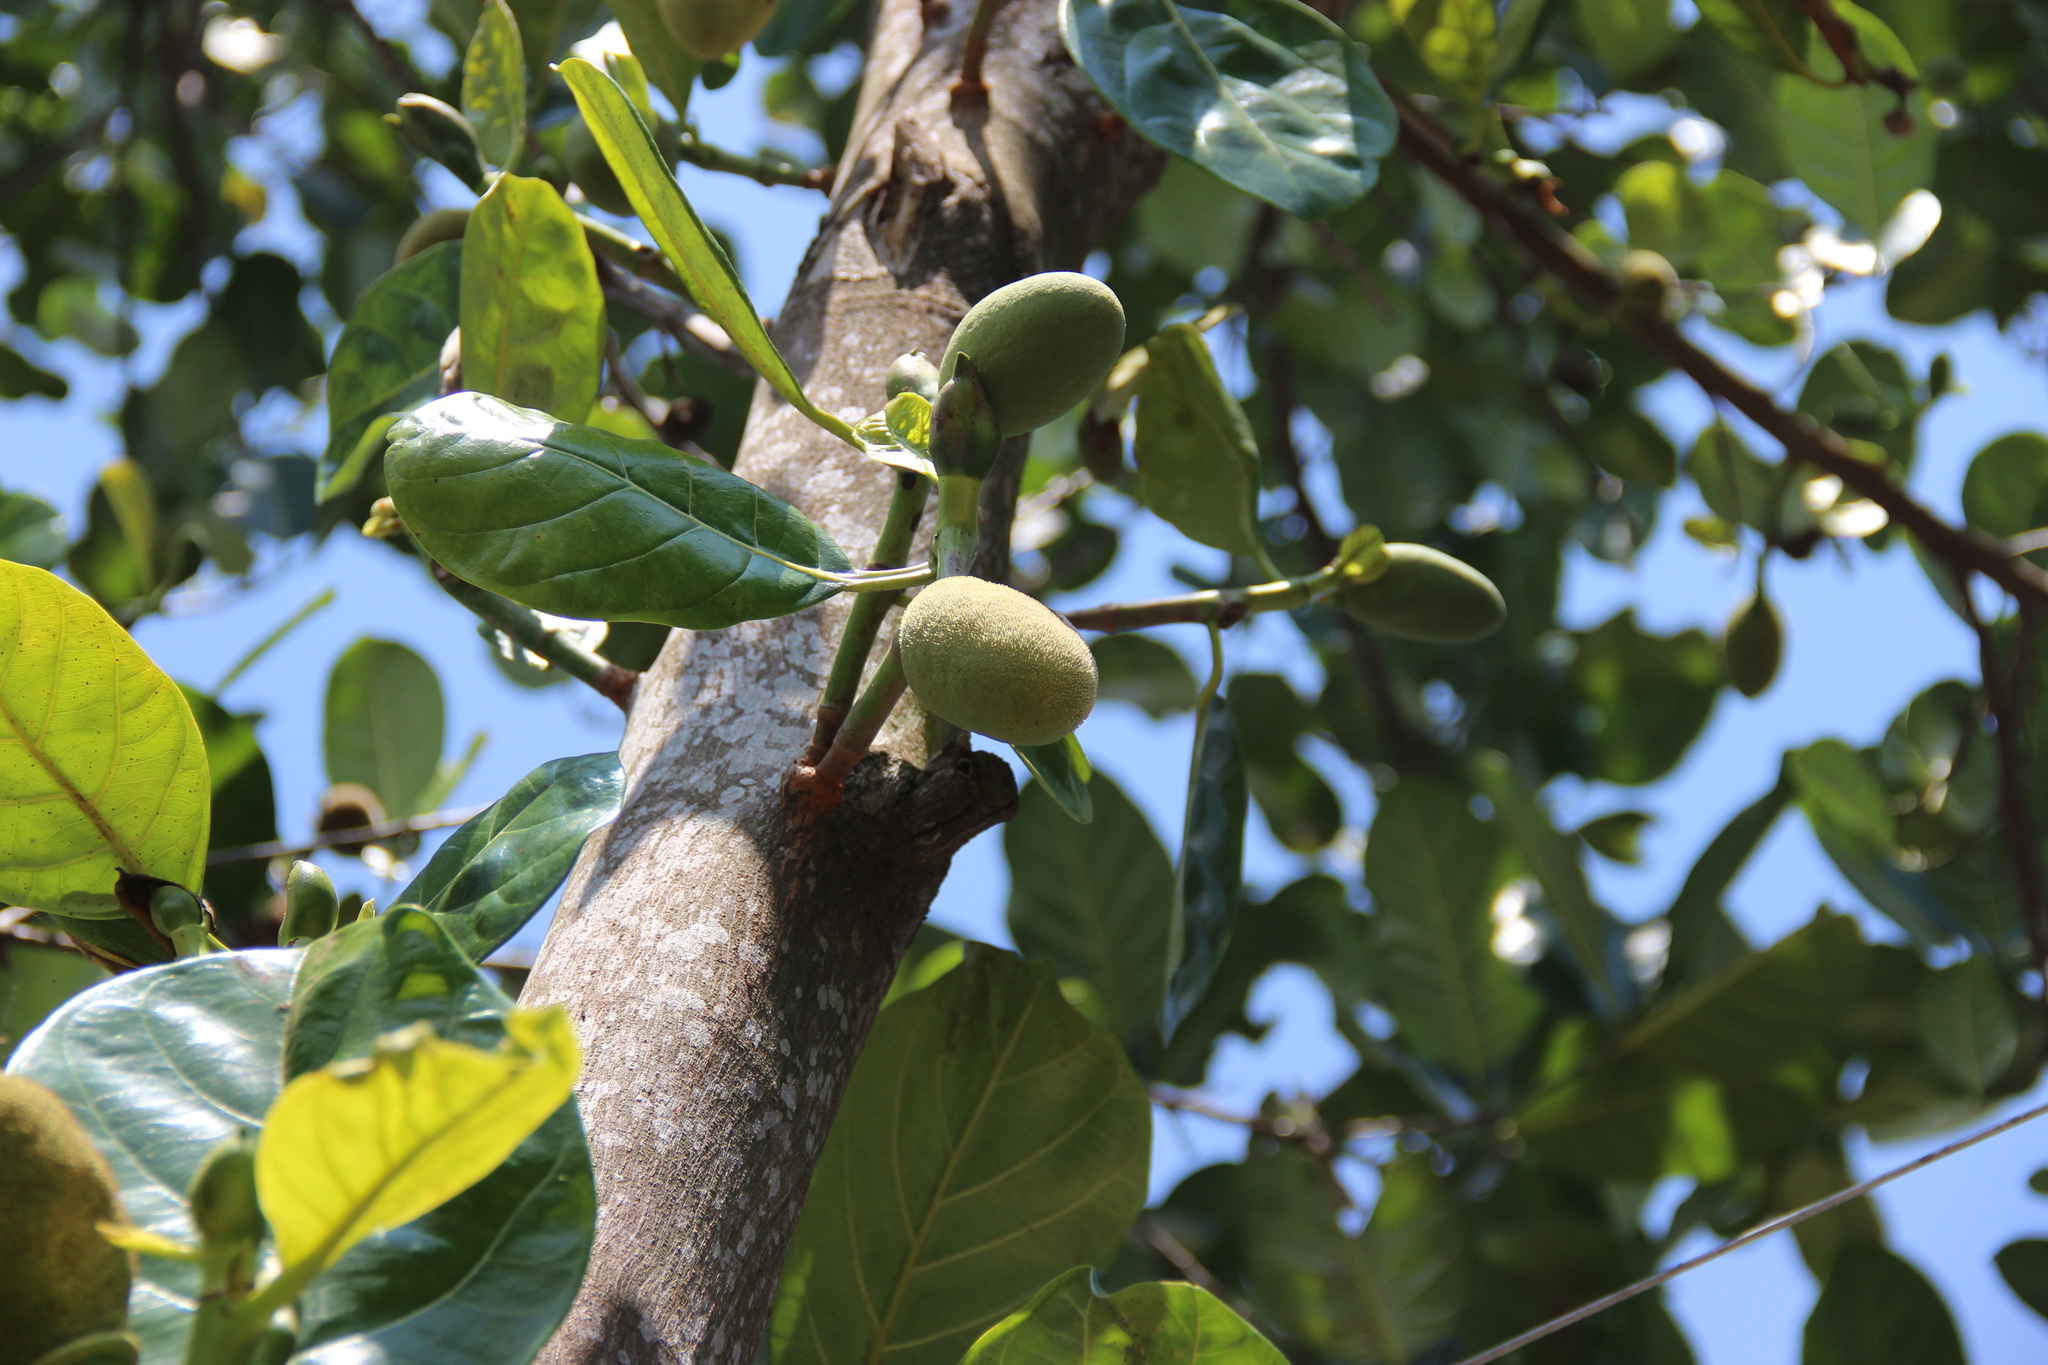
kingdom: Plantae
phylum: Tracheophyta
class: Magnoliopsida
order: Rosales
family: Moraceae
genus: Artocarpus
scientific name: Artocarpus heterophyllus
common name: Jackfruit
